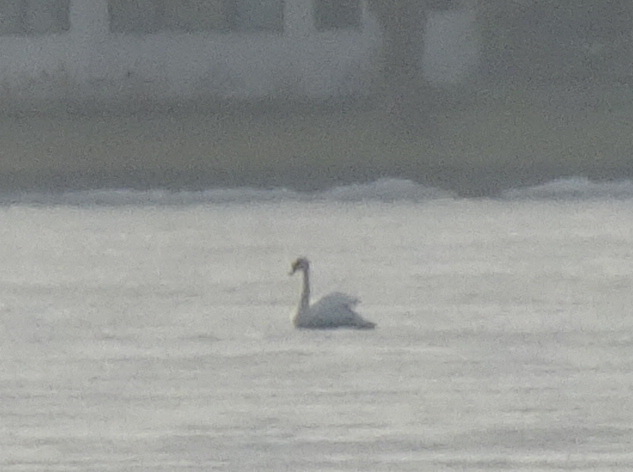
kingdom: Animalia
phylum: Chordata
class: Aves
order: Anseriformes
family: Anatidae
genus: Cygnus
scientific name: Cygnus olor
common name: Mute swan
